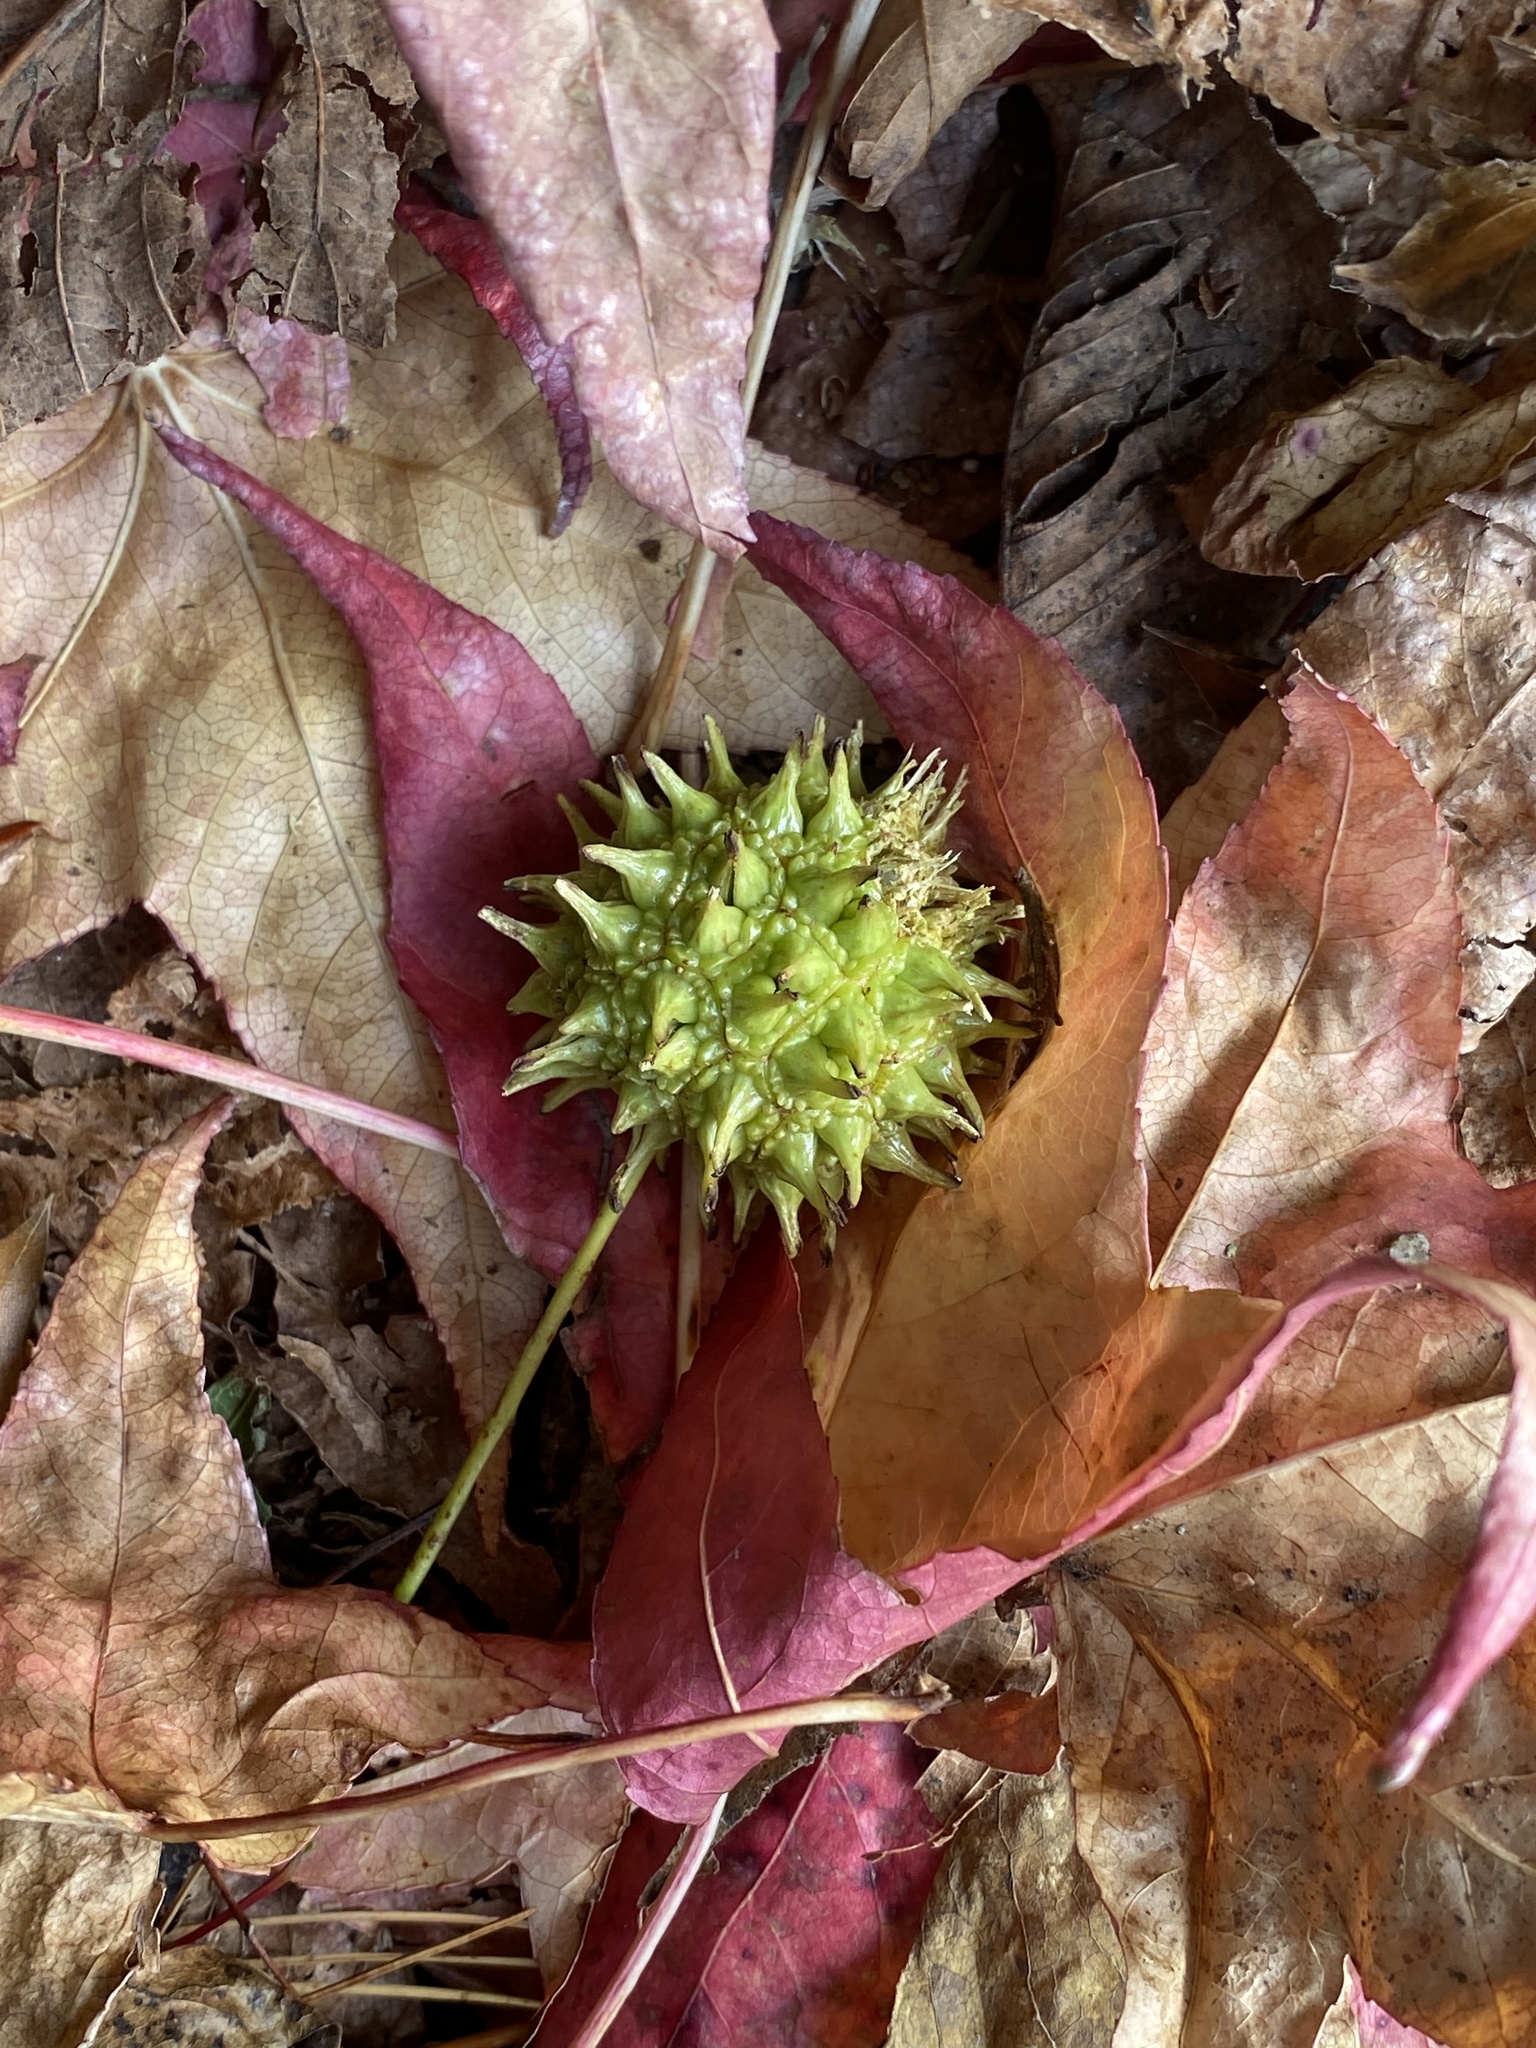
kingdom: Plantae
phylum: Tracheophyta
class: Magnoliopsida
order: Saxifragales
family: Altingiaceae
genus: Liquidambar
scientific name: Liquidambar styraciflua
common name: Sweet gum
